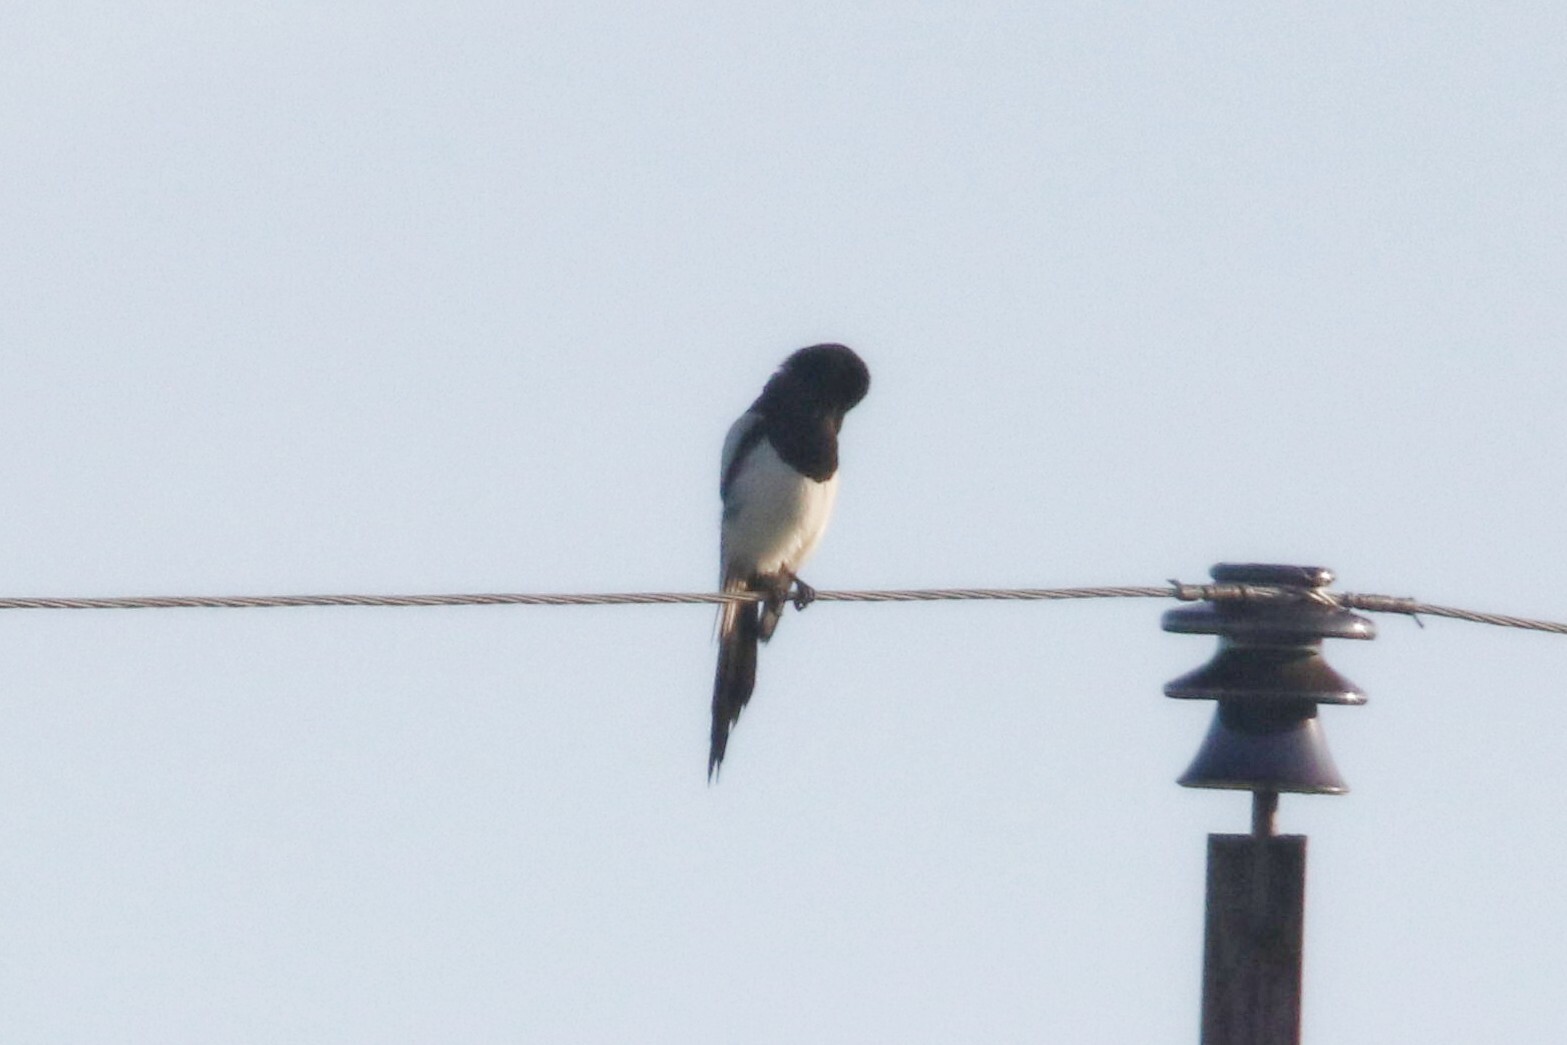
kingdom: Animalia
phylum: Chordata
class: Aves
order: Passeriformes
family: Corvidae
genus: Pica
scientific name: Pica pica
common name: Eurasian magpie
